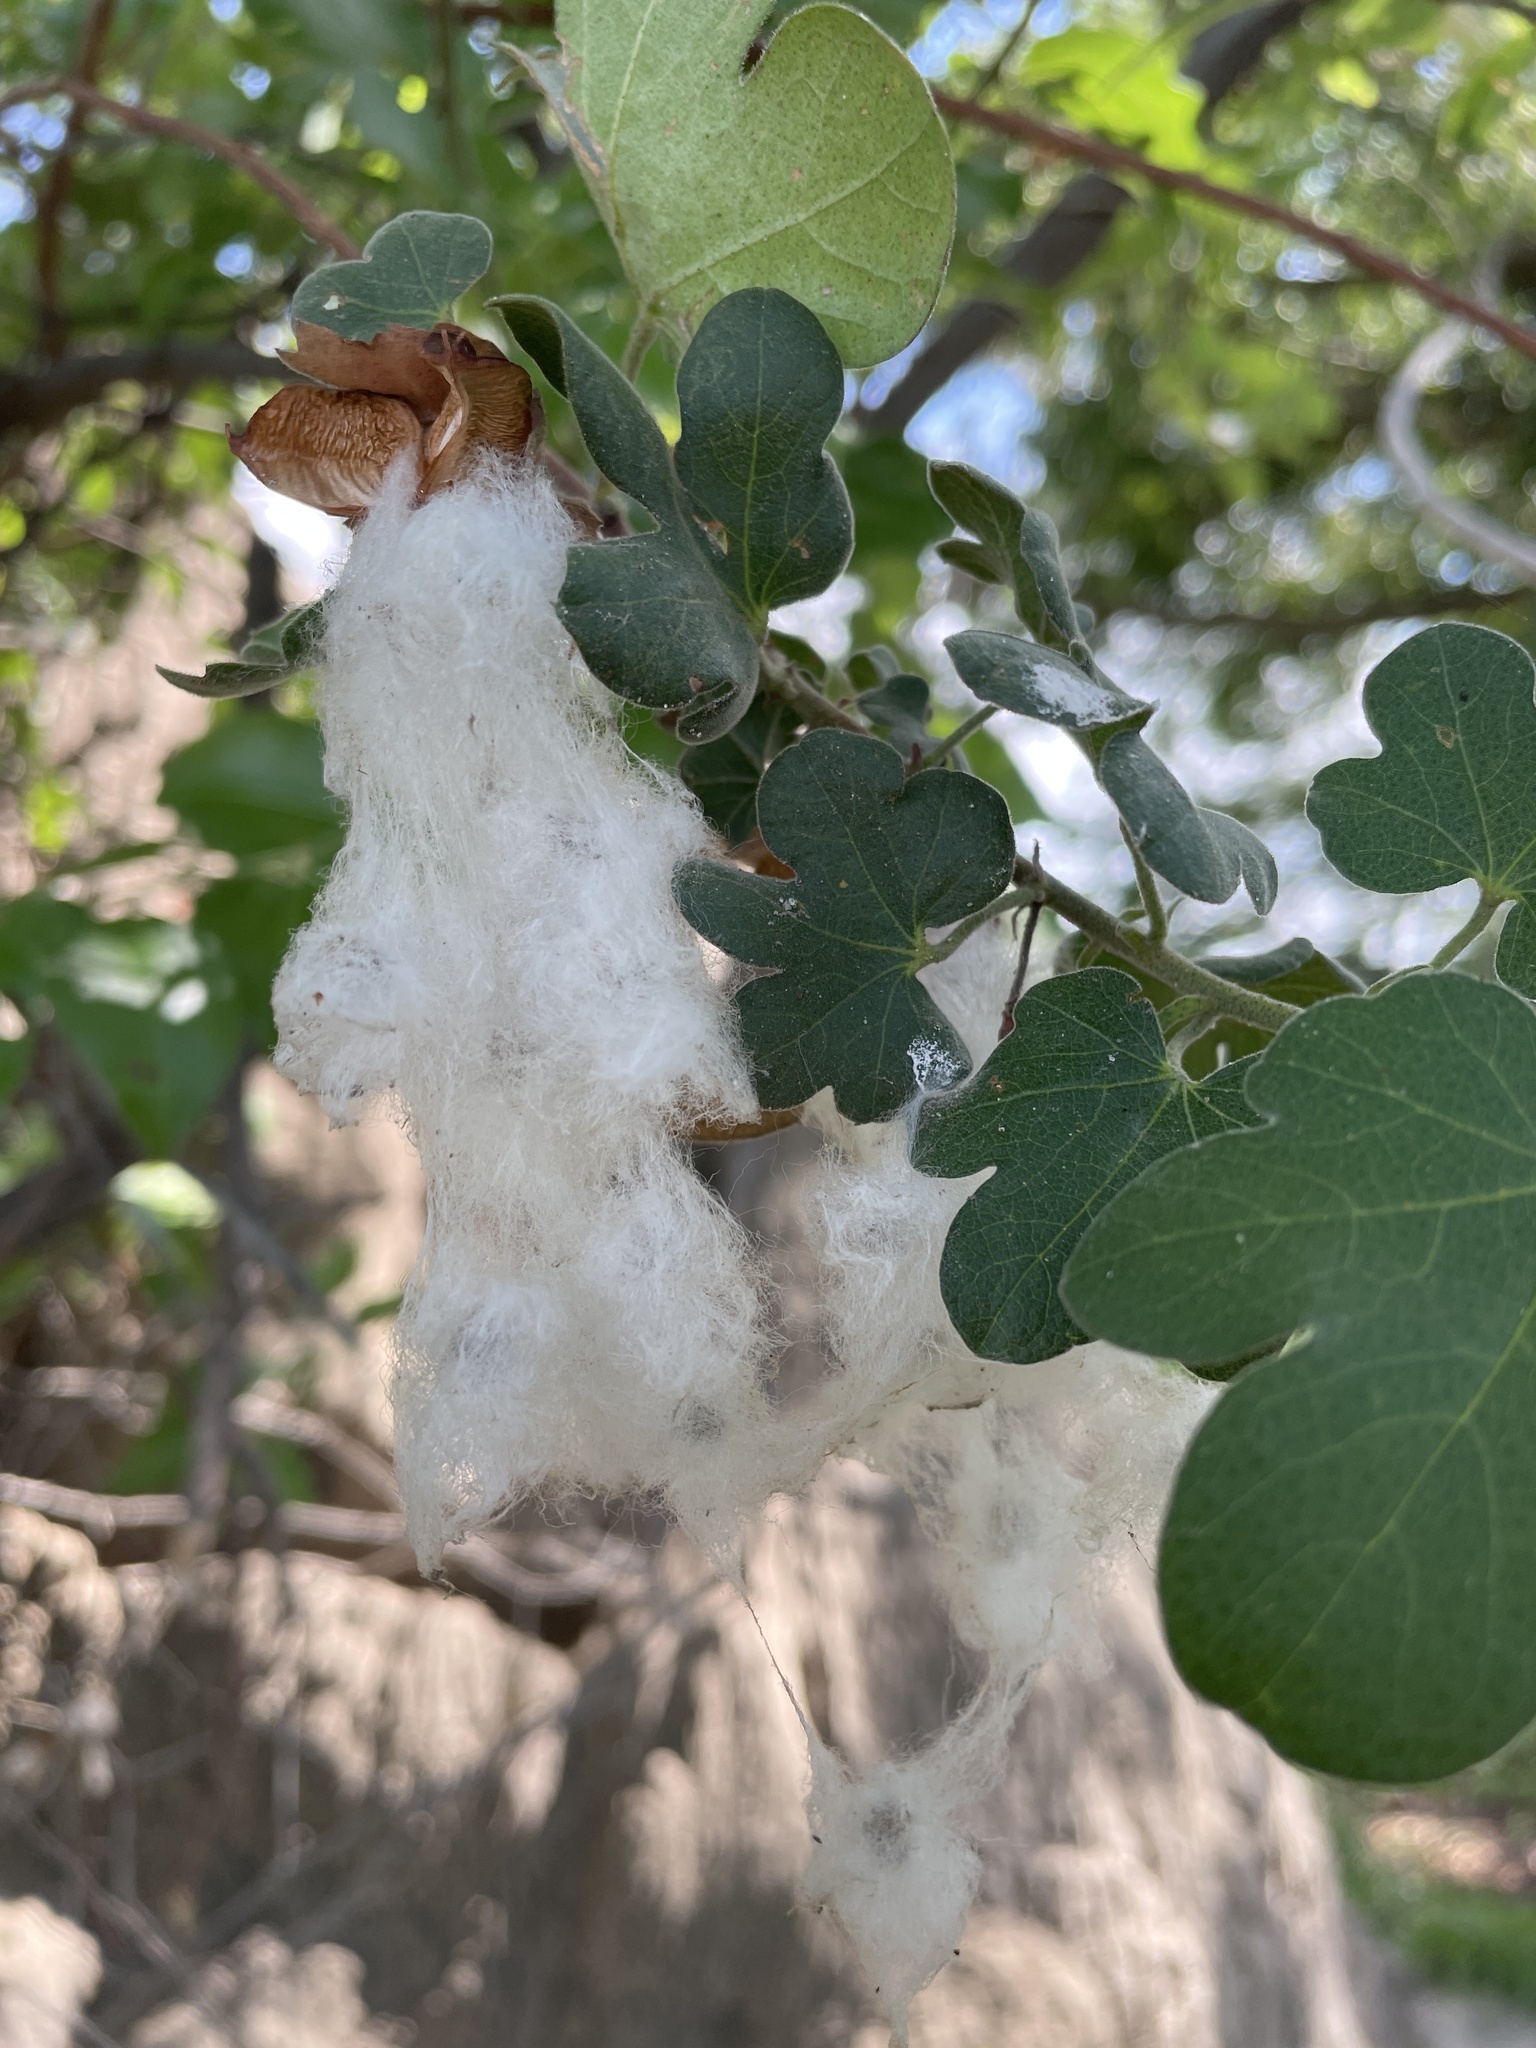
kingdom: Plantae
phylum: Tracheophyta
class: Magnoliopsida
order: Malvales
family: Malvaceae
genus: Gossypium
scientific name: Gossypium herbaceum
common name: Levant cotton
